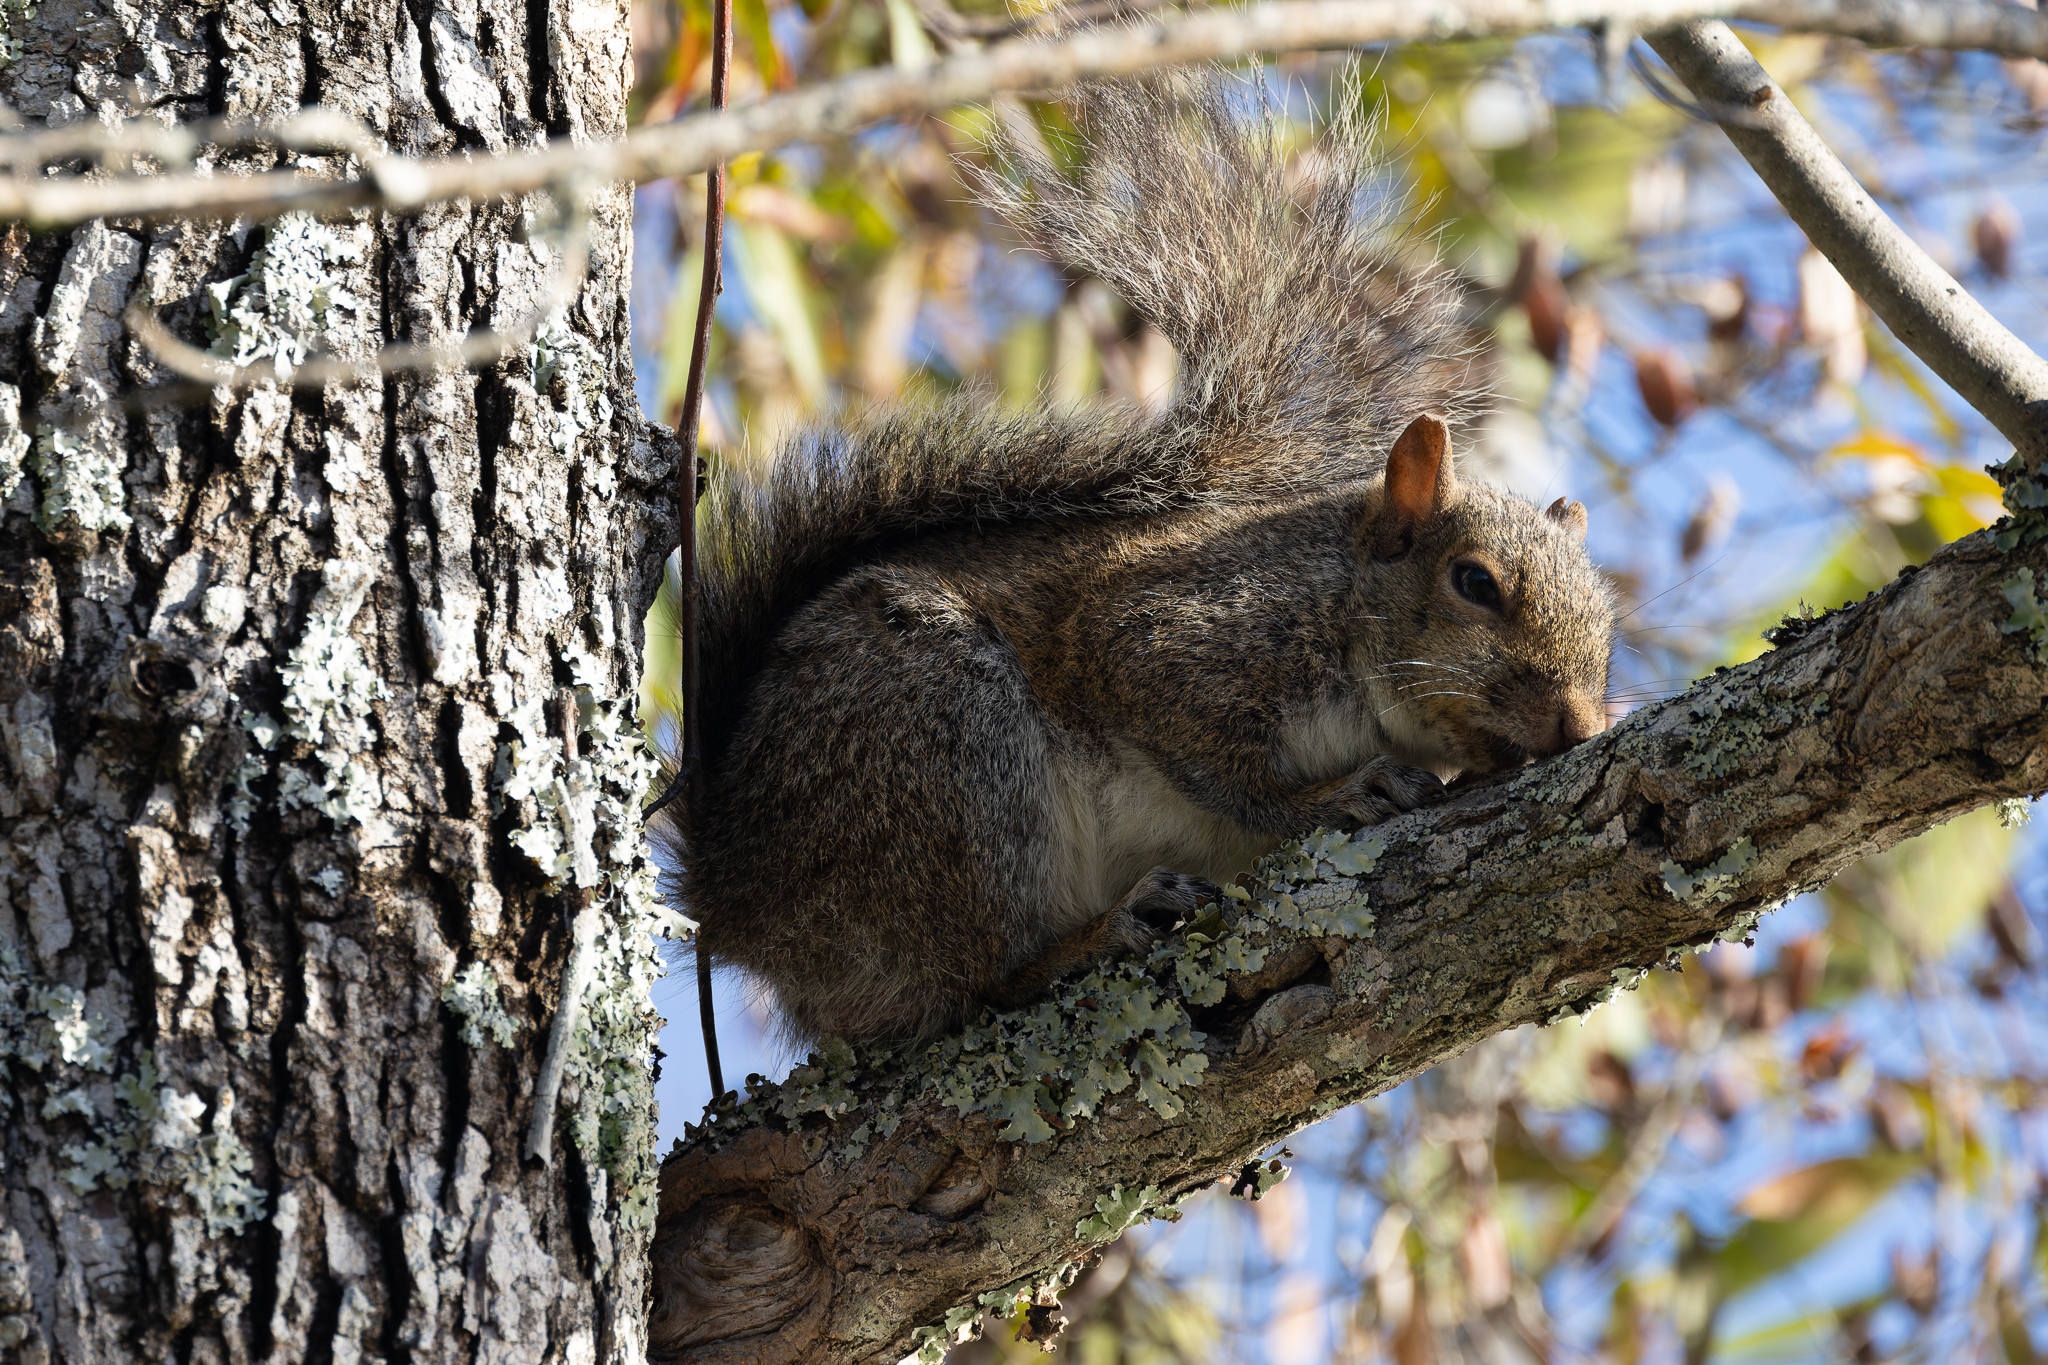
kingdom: Animalia
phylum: Chordata
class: Mammalia
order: Rodentia
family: Sciuridae
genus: Sciurus
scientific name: Sciurus carolinensis
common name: Eastern gray squirrel
